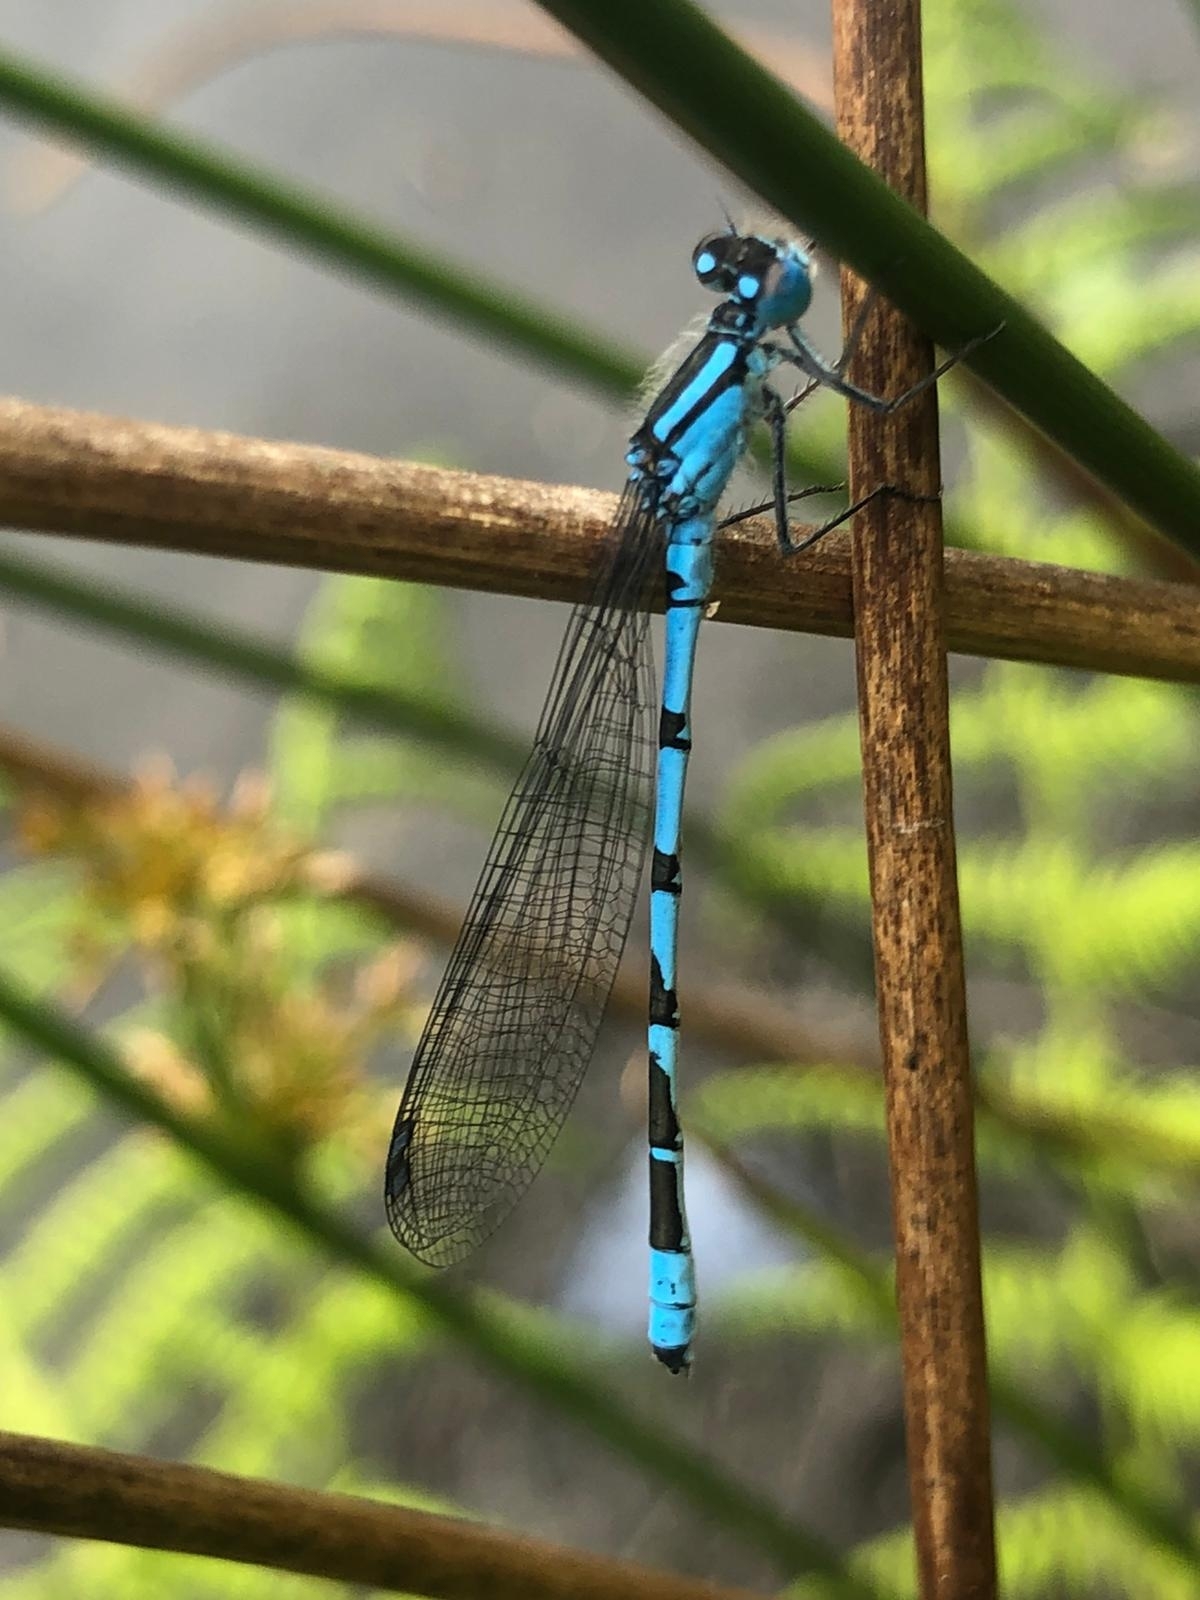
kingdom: Animalia
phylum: Arthropoda
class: Insecta
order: Odonata
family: Coenagrionidae
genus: Enallagma
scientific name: Enallagma cyathigerum
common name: Common blue damselfly
